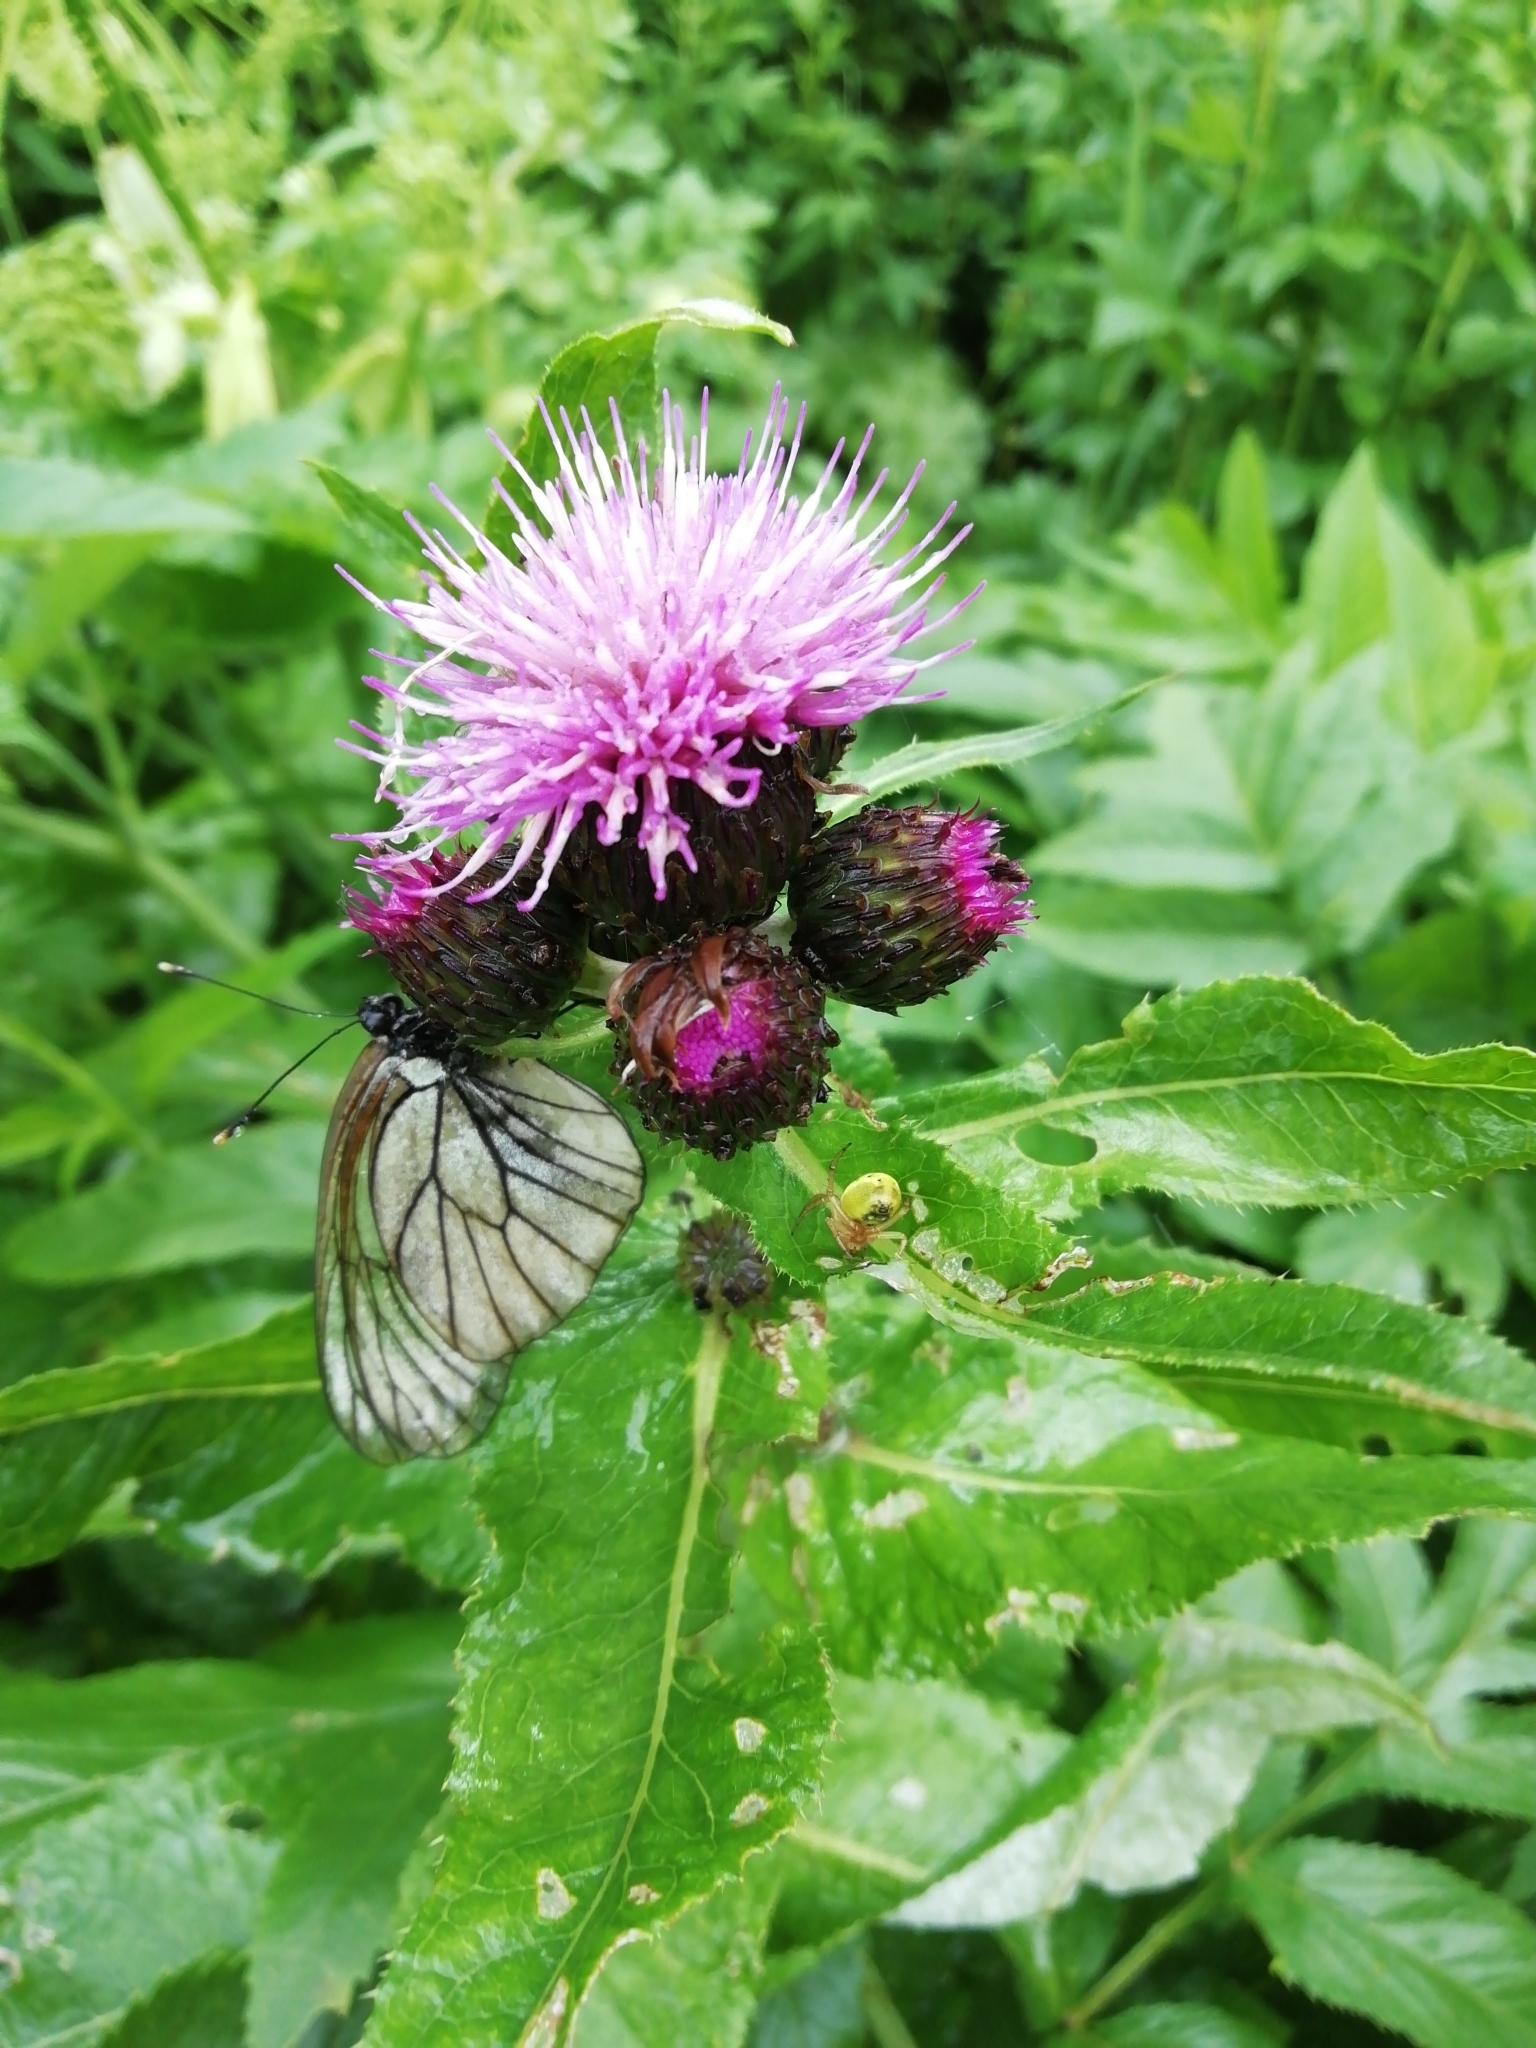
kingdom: Plantae
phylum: Tracheophyta
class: Magnoliopsida
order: Asterales
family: Asteraceae
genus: Cirsium
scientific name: Cirsium helenioides
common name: Melancholy thistle
